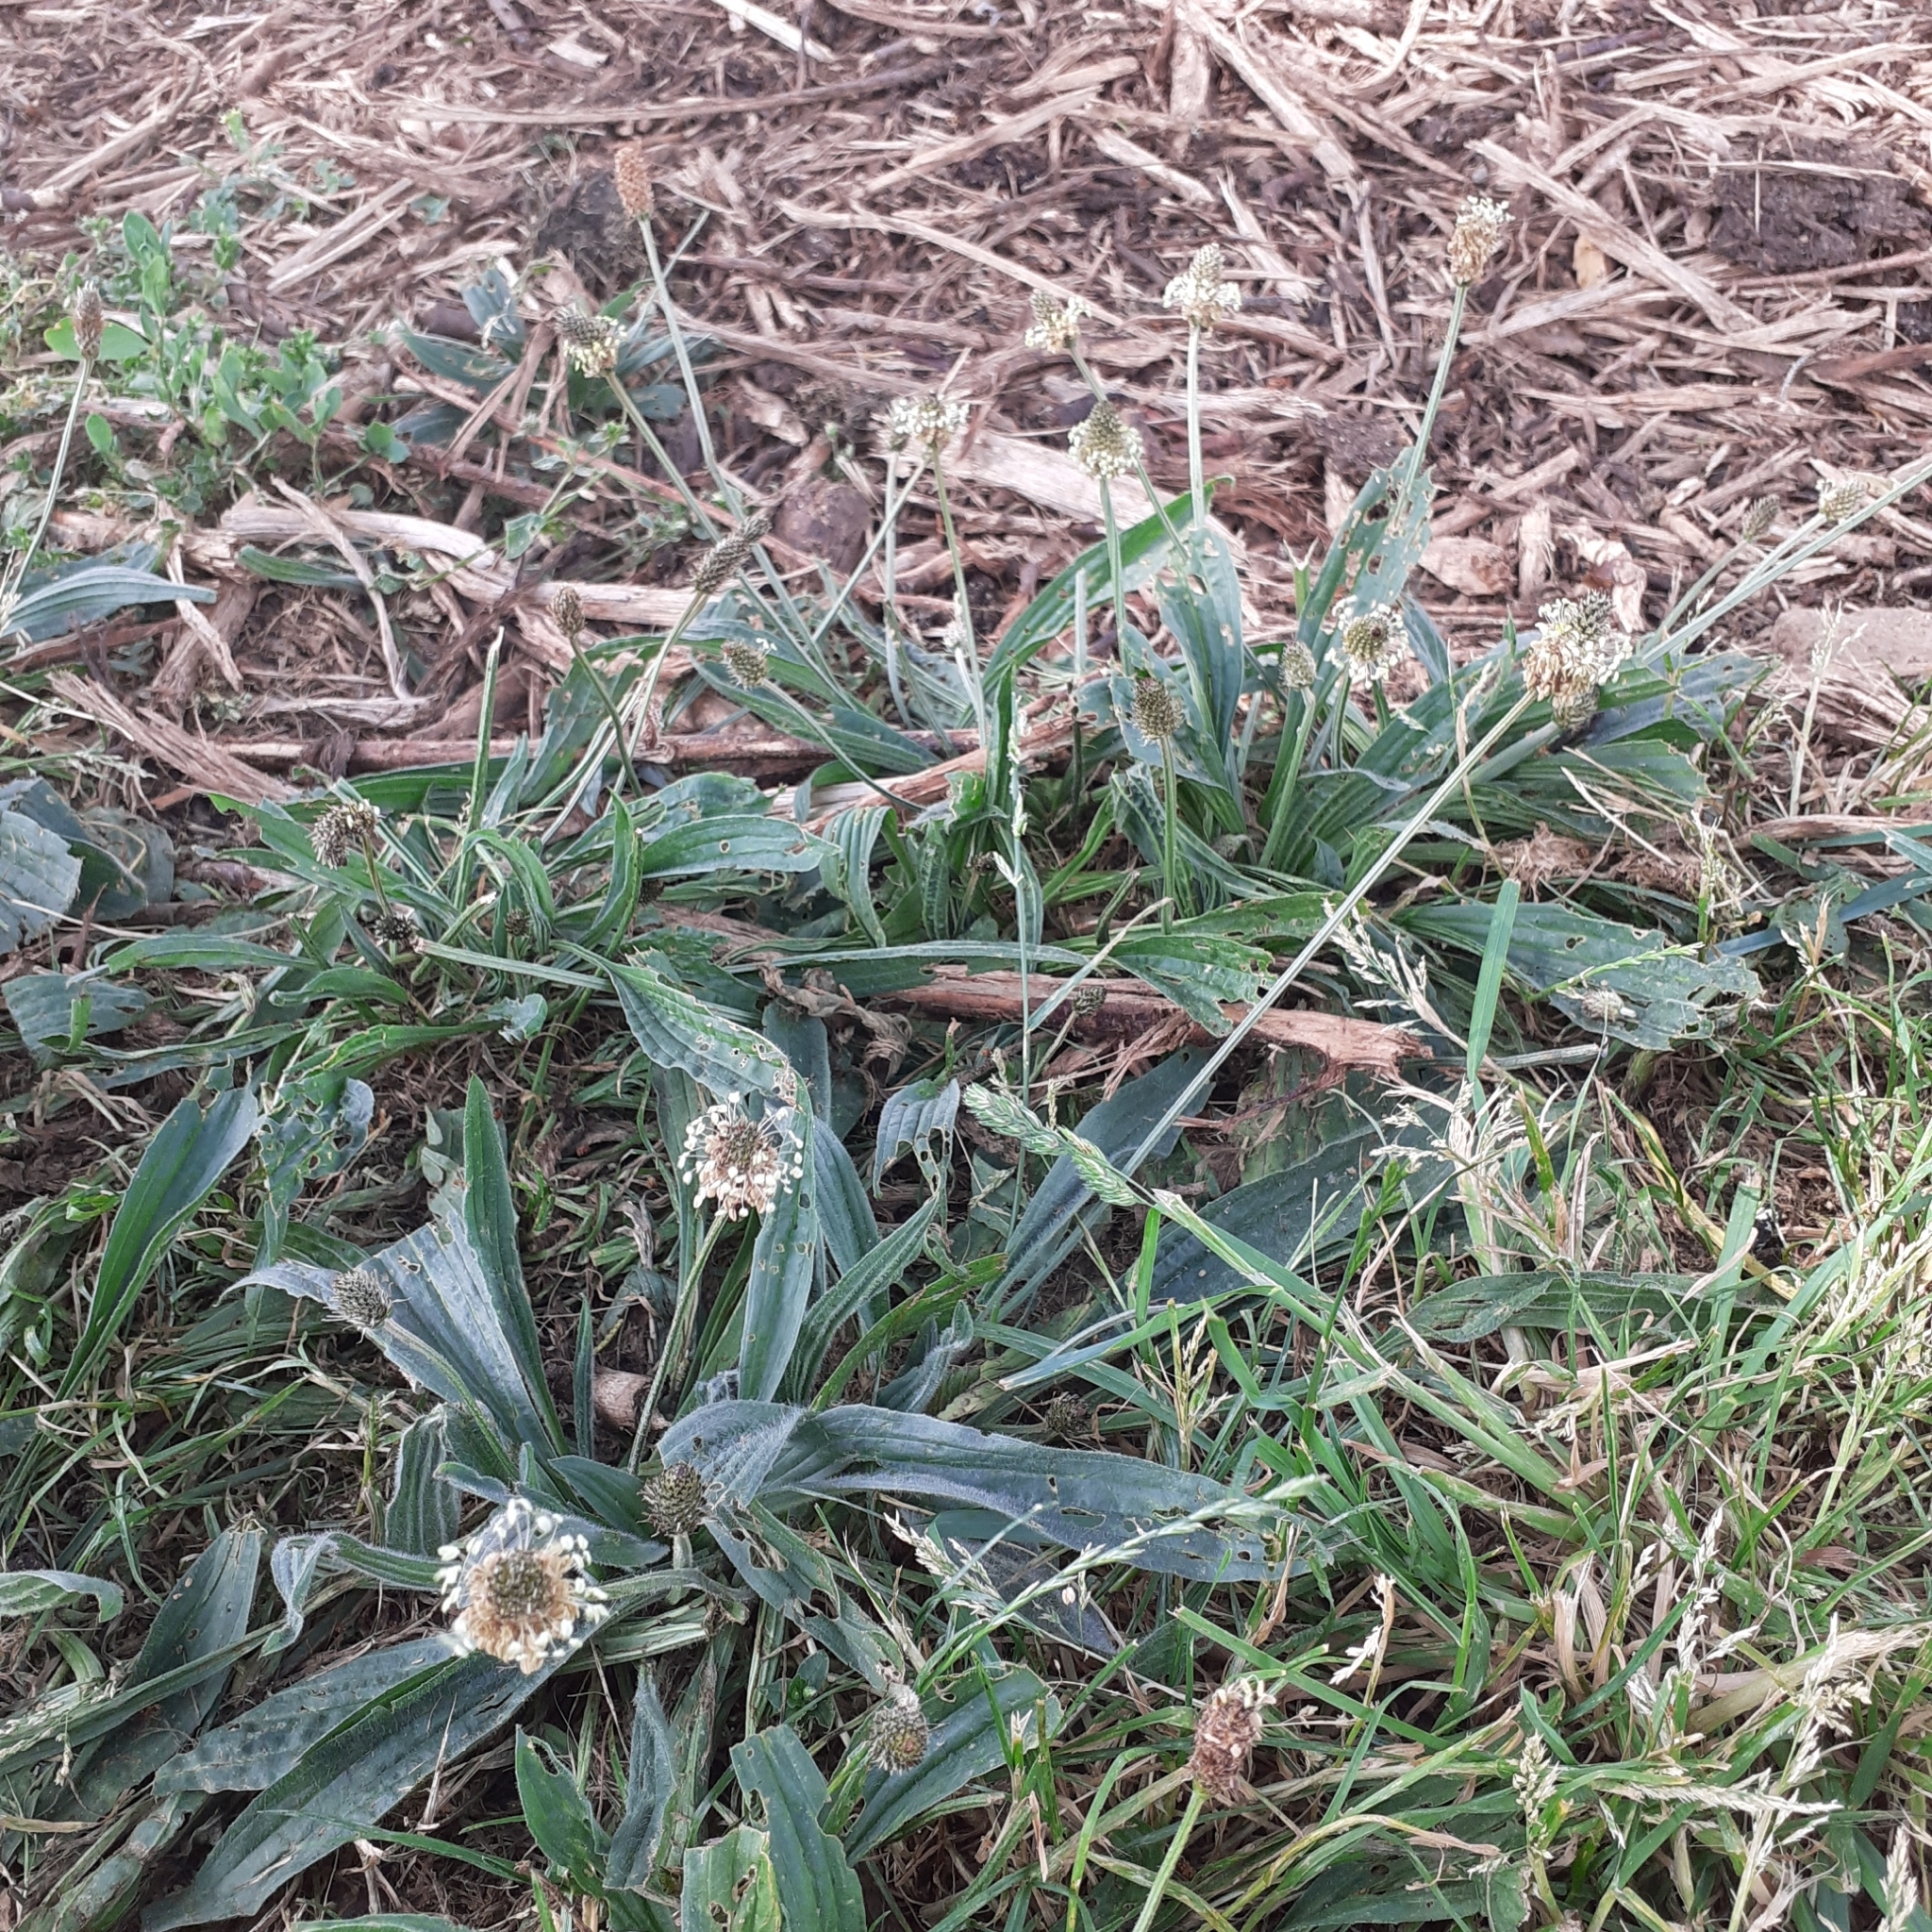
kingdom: Plantae
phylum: Tracheophyta
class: Magnoliopsida
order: Lamiales
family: Plantaginaceae
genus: Plantago
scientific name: Plantago lanceolata
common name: Ribwort plantain
